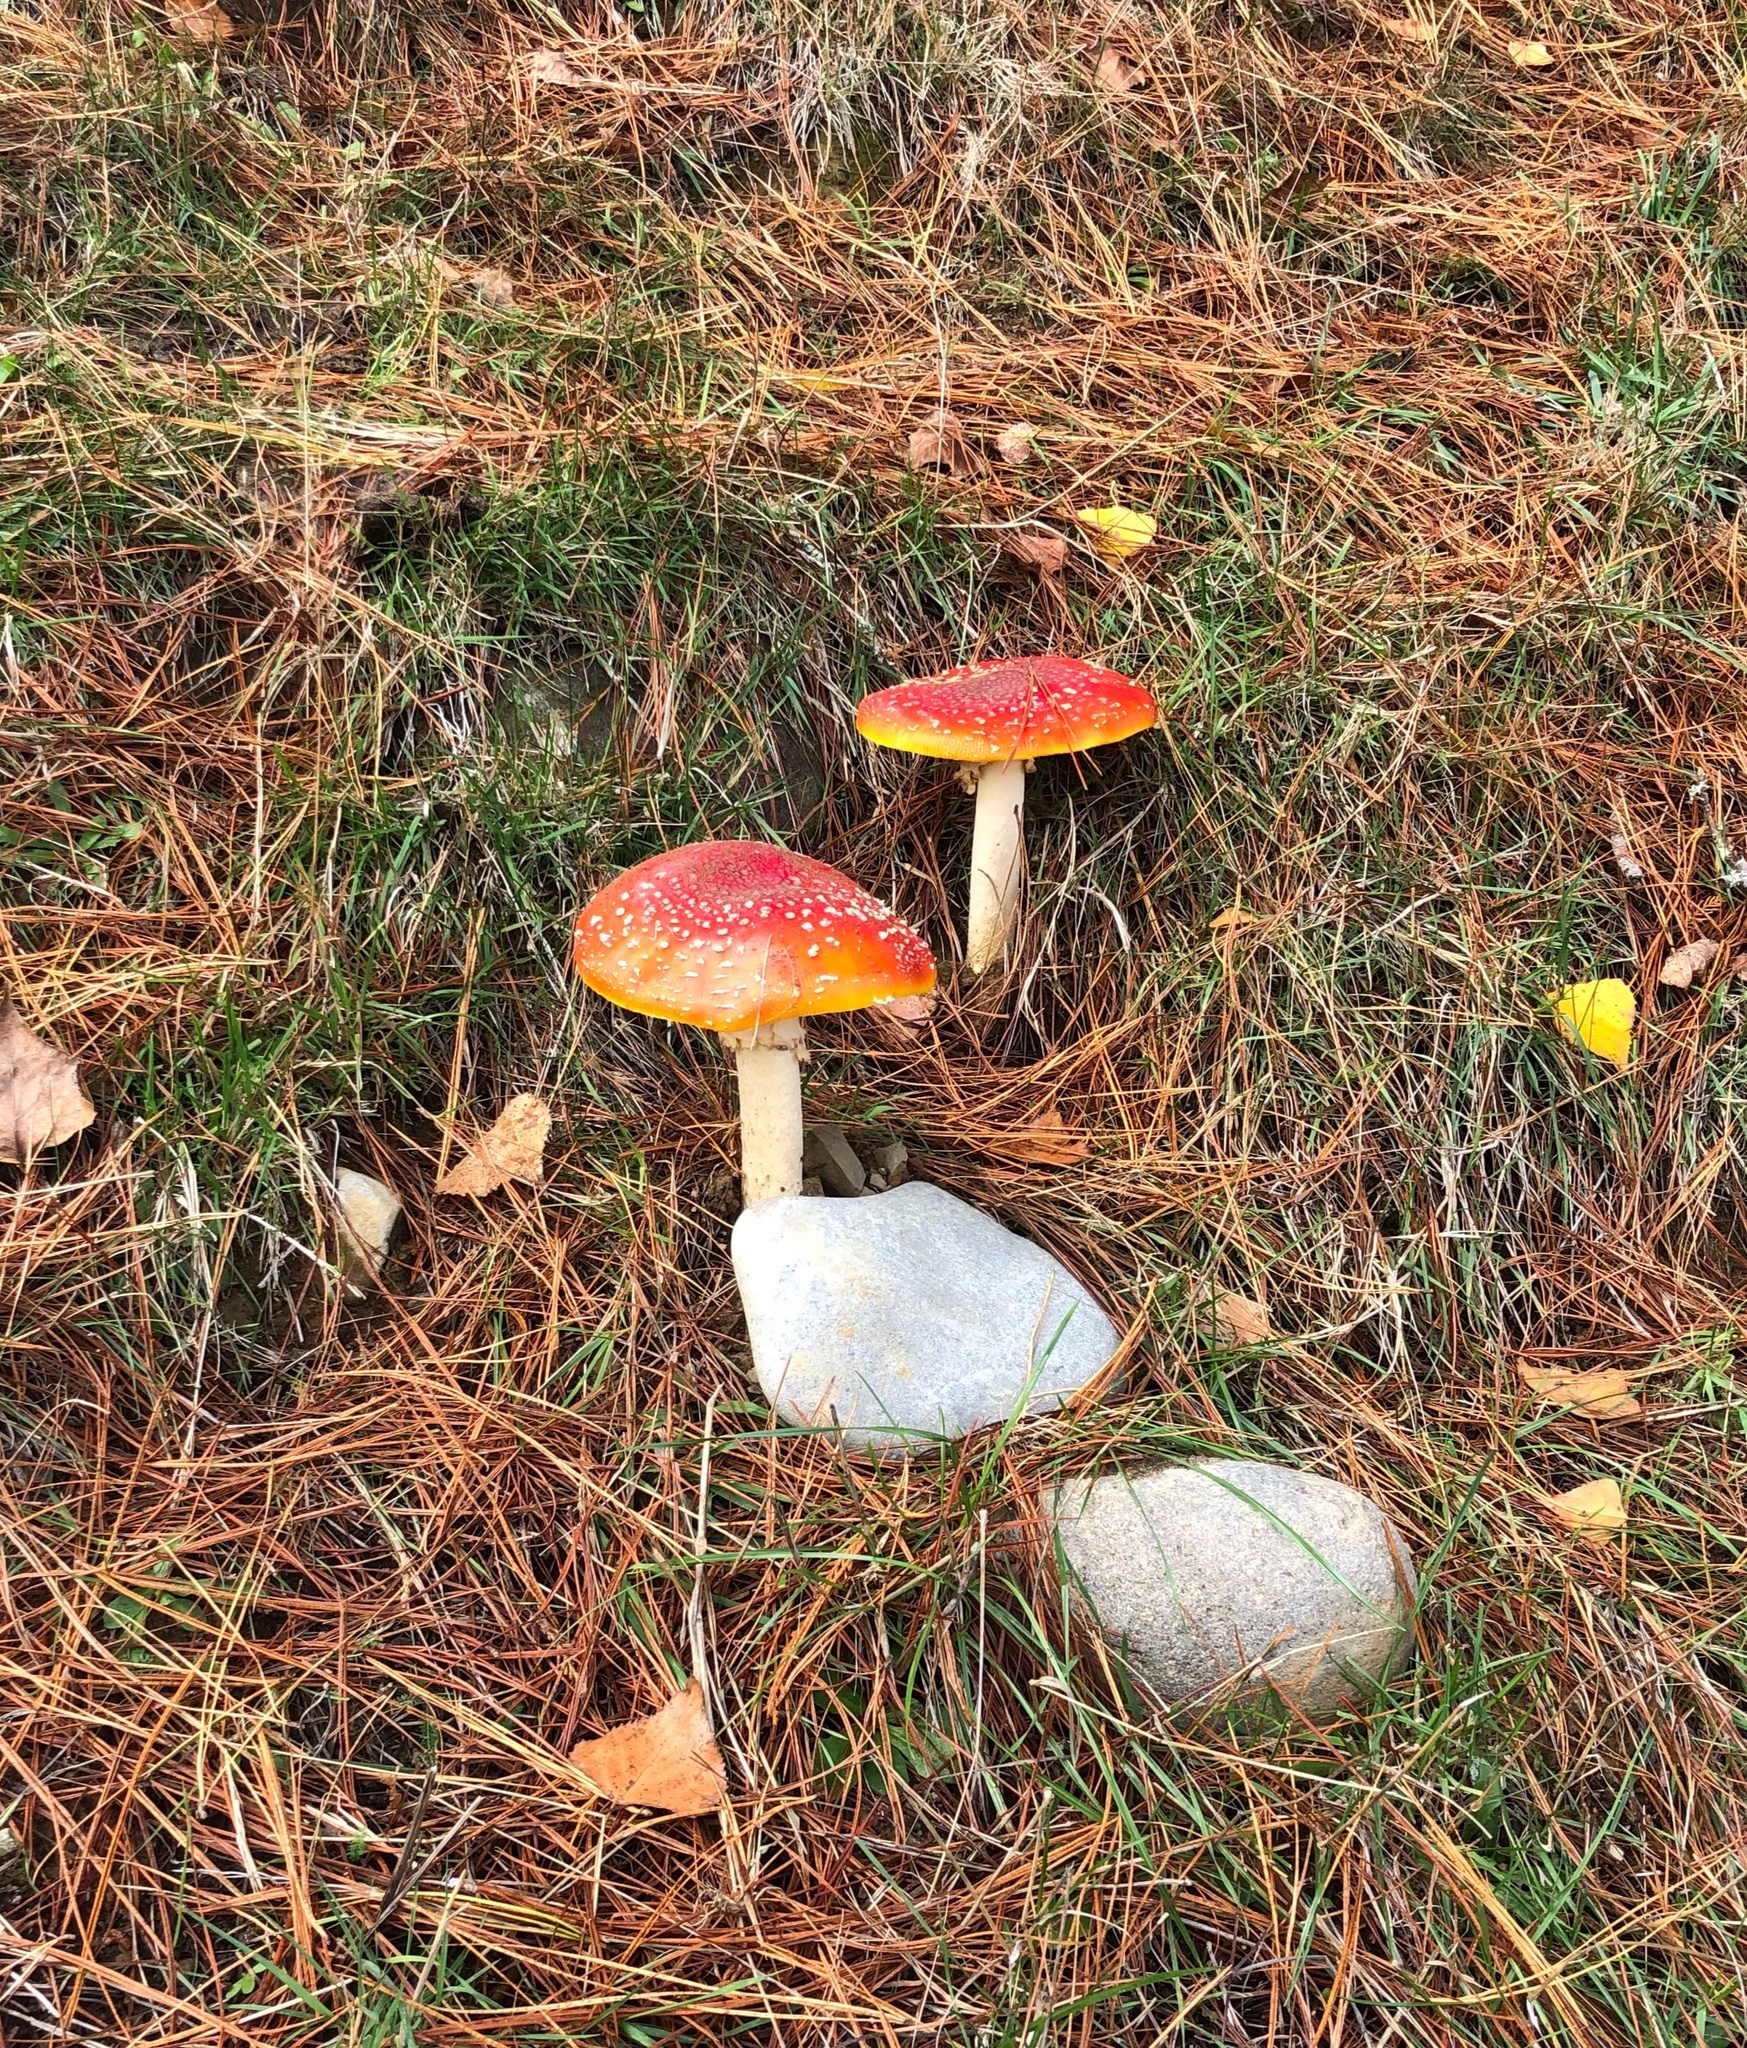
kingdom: Fungi
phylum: Basidiomycota
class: Agaricomycetes
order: Agaricales
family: Amanitaceae
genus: Amanita
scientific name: Amanita muscaria
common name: Fly agaric
